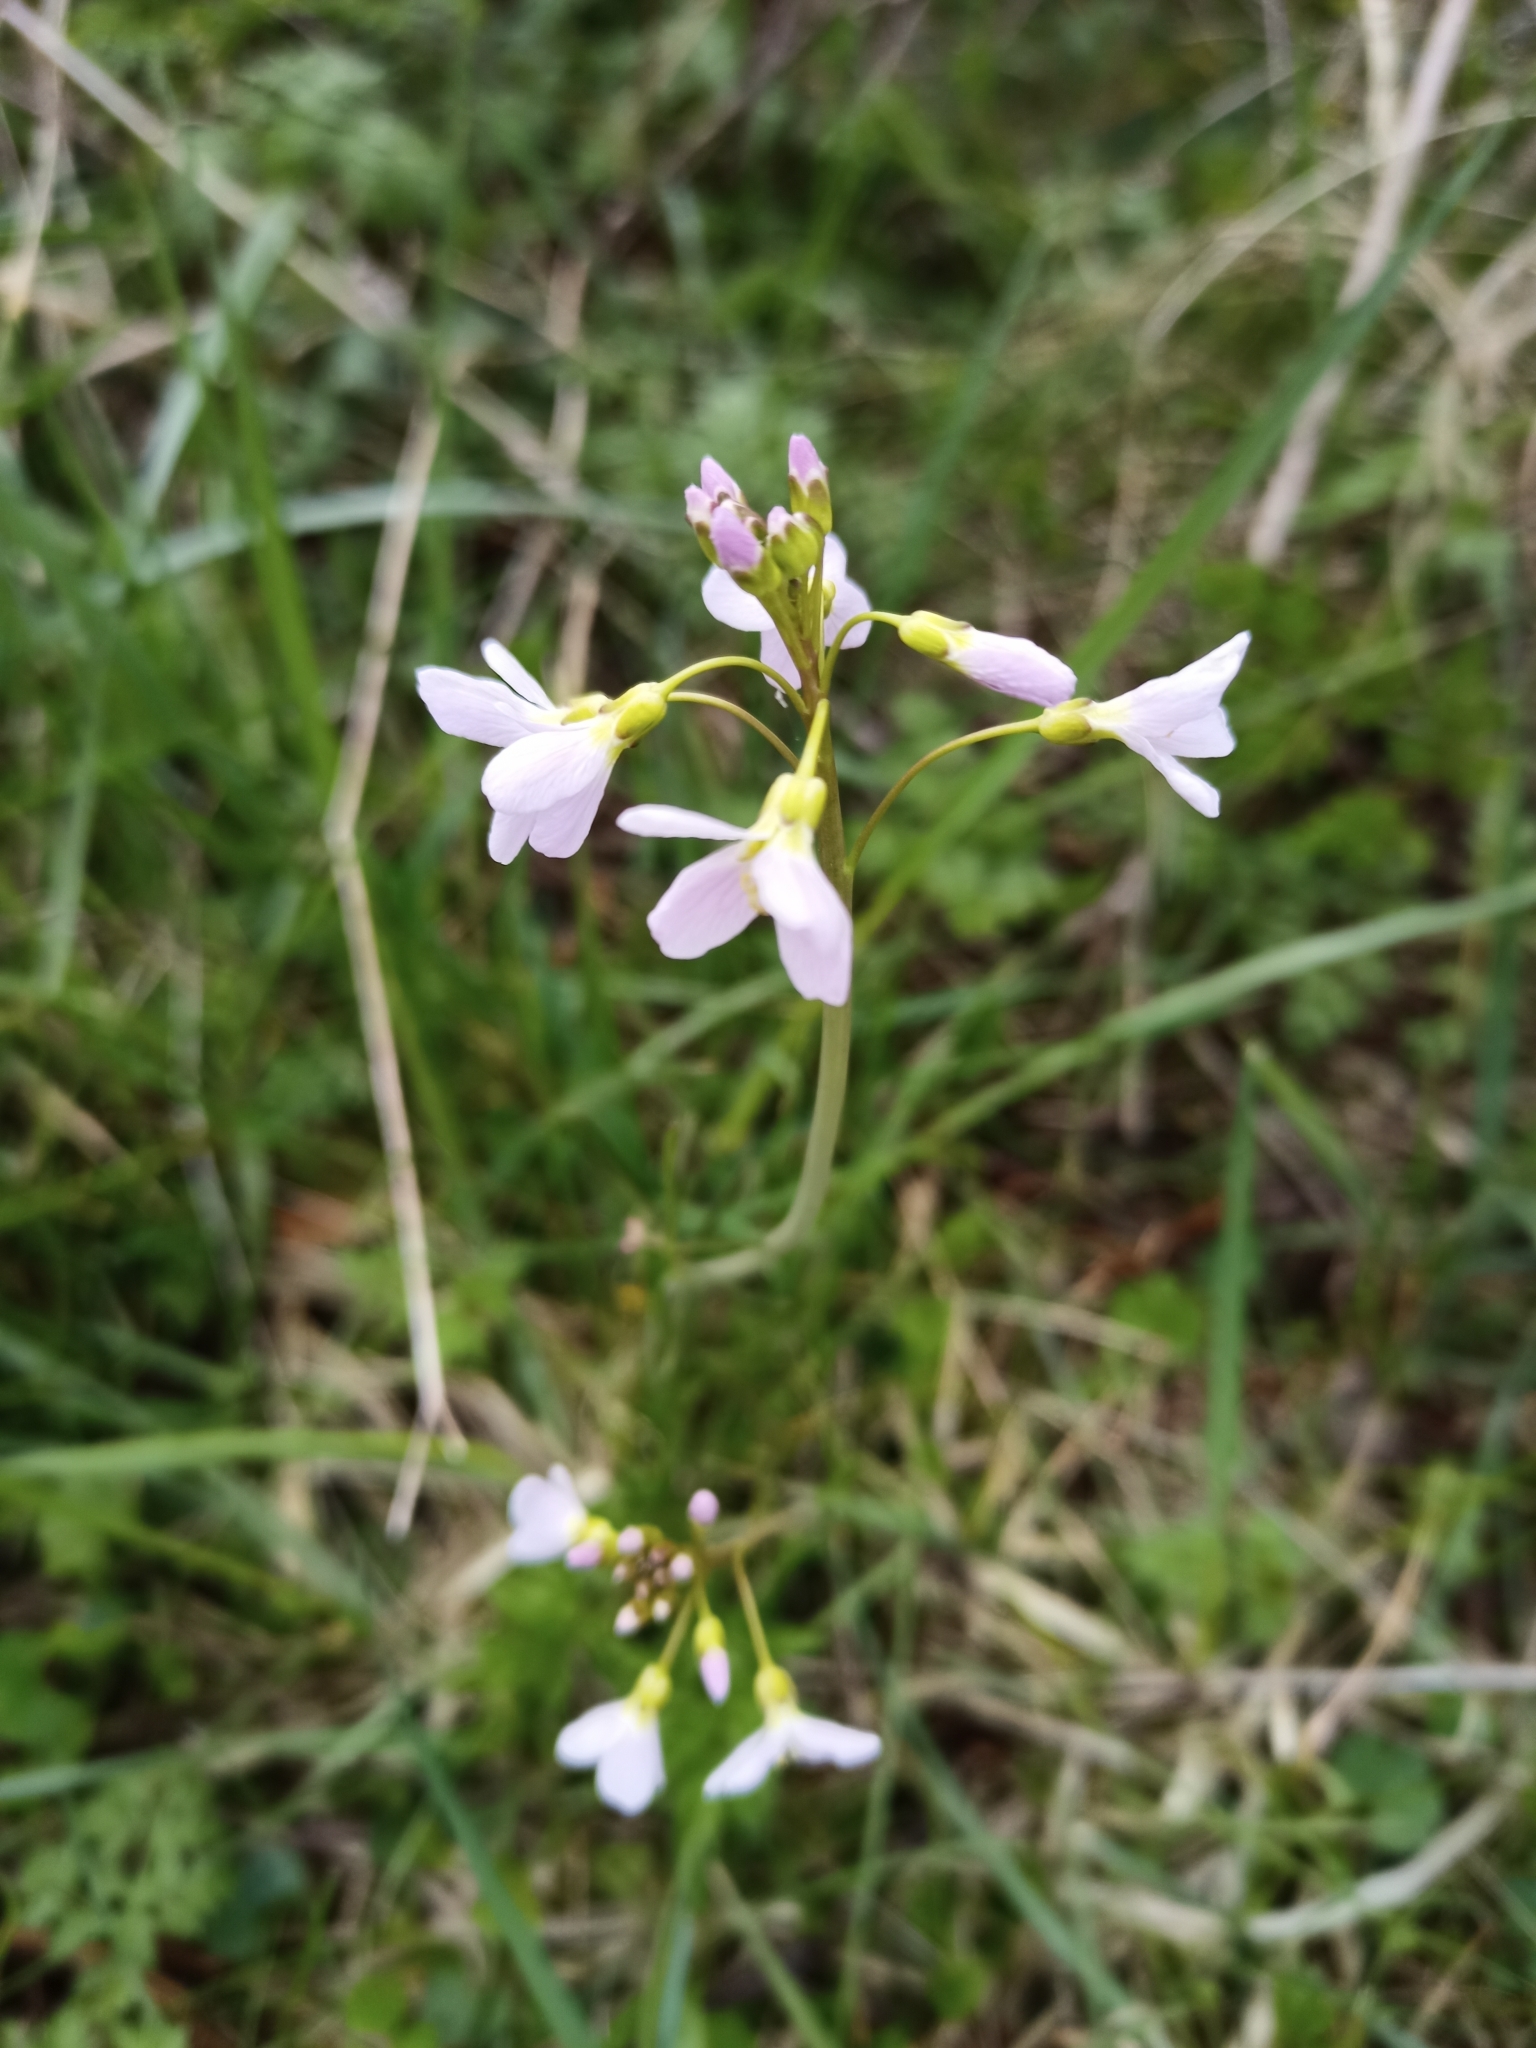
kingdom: Plantae
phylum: Tracheophyta
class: Magnoliopsida
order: Brassicales
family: Brassicaceae
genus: Cardamine
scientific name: Cardamine pratensis
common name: Cuckoo flower
